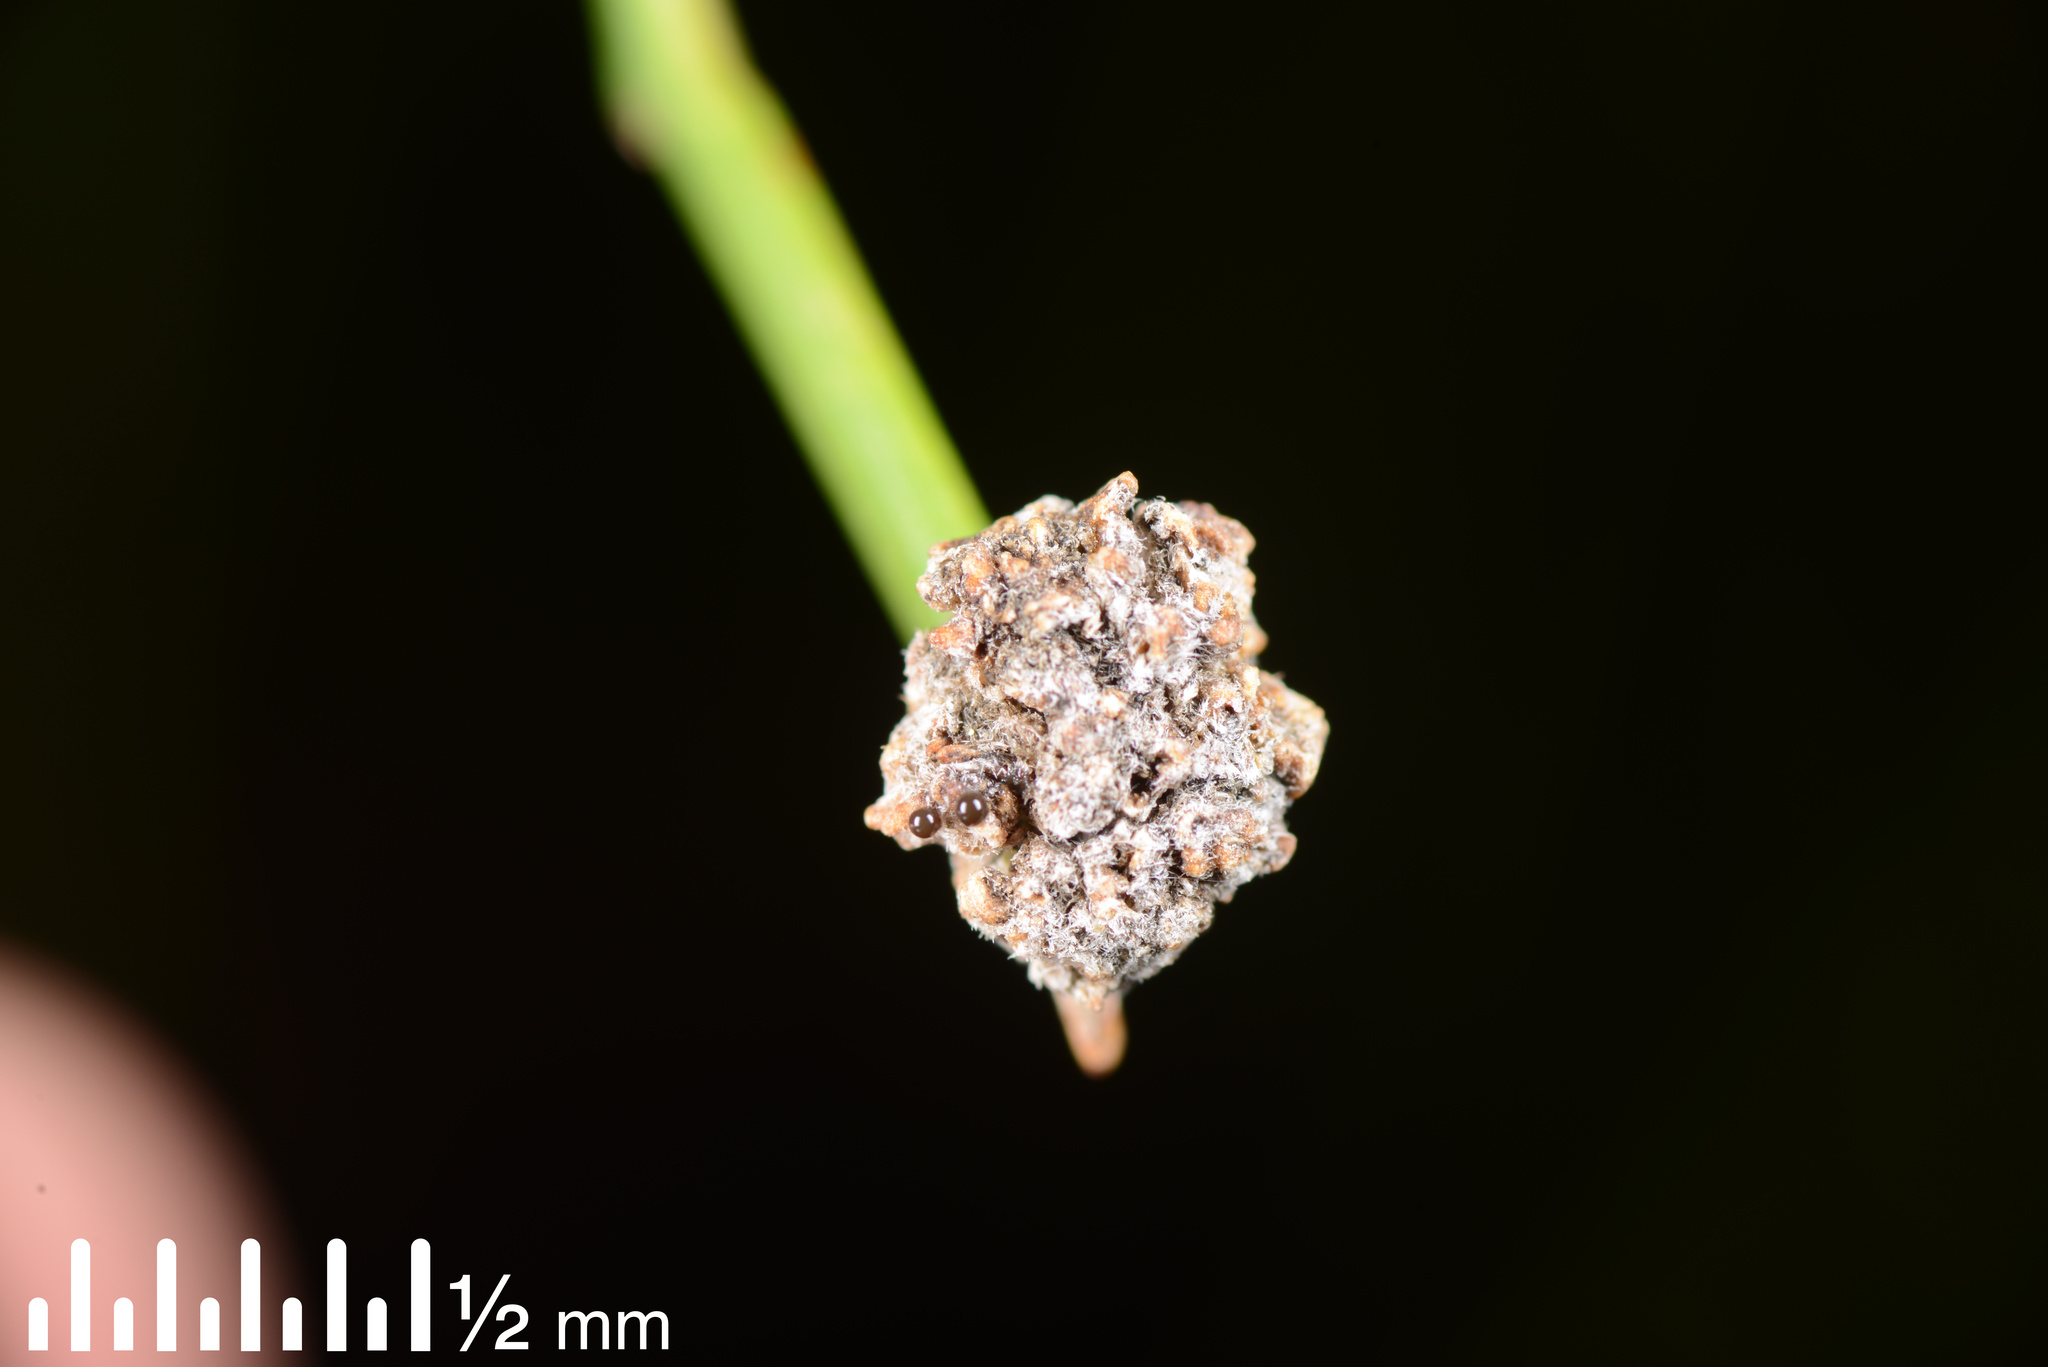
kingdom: Animalia
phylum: Arthropoda
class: Arachnida
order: Trombidiformes
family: Eriophyidae
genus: Aceria
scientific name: Aceria carmichaeliae
